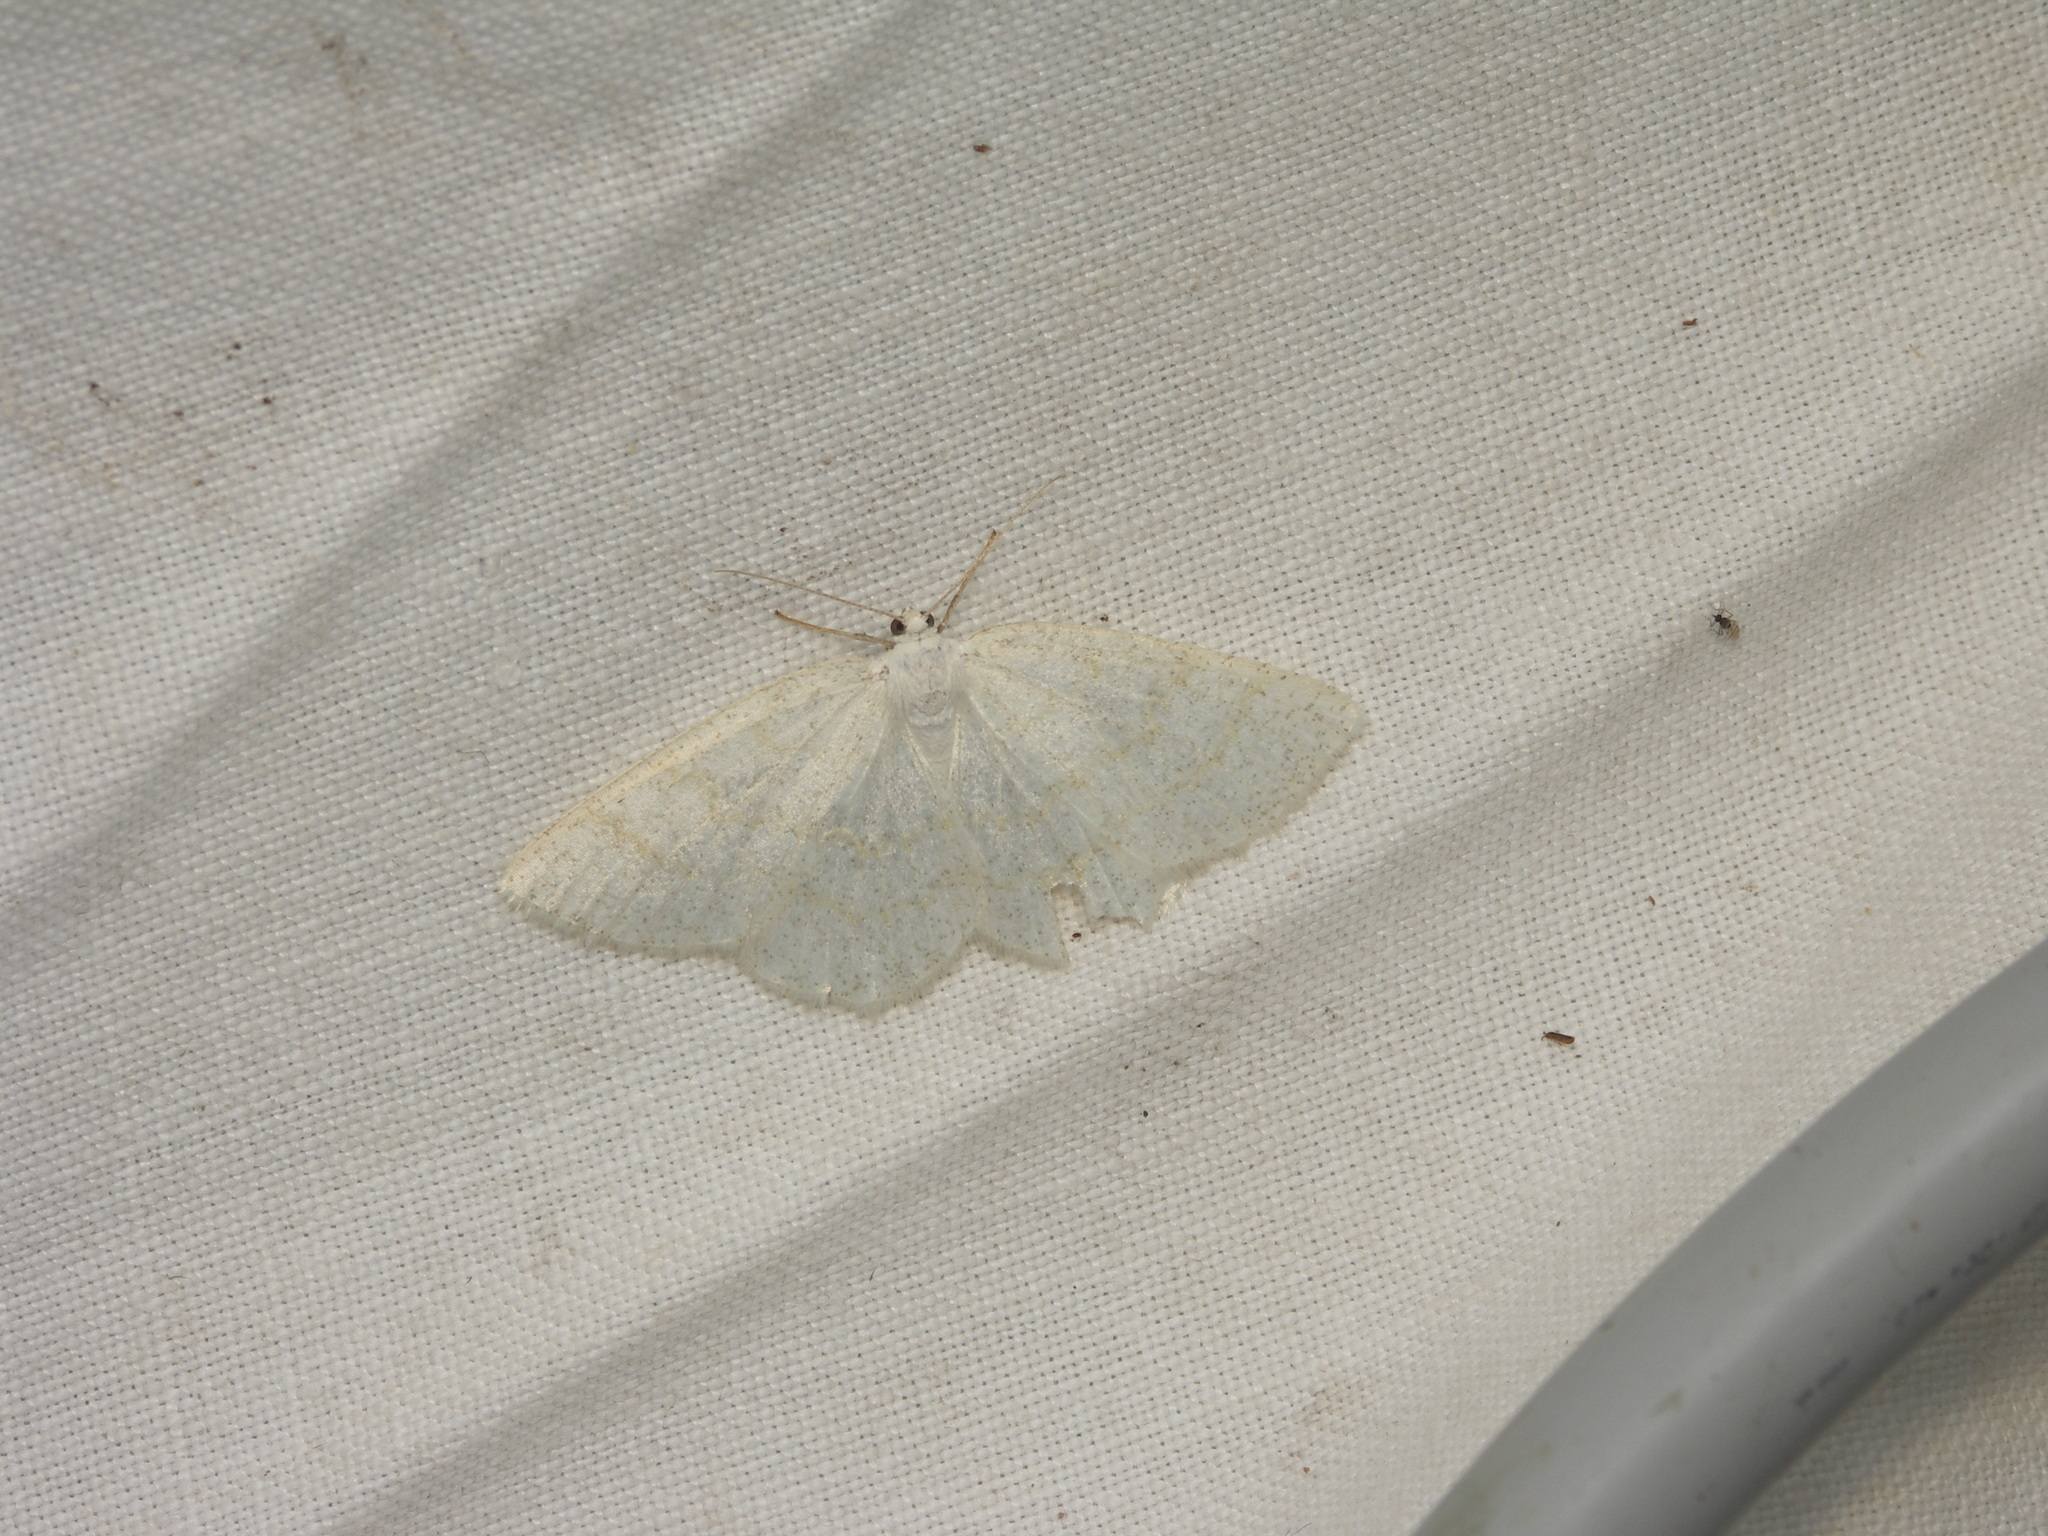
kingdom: Animalia
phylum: Arthropoda
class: Insecta
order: Lepidoptera
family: Geometridae
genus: Cabera
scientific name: Cabera exanthemata
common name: Common wave
